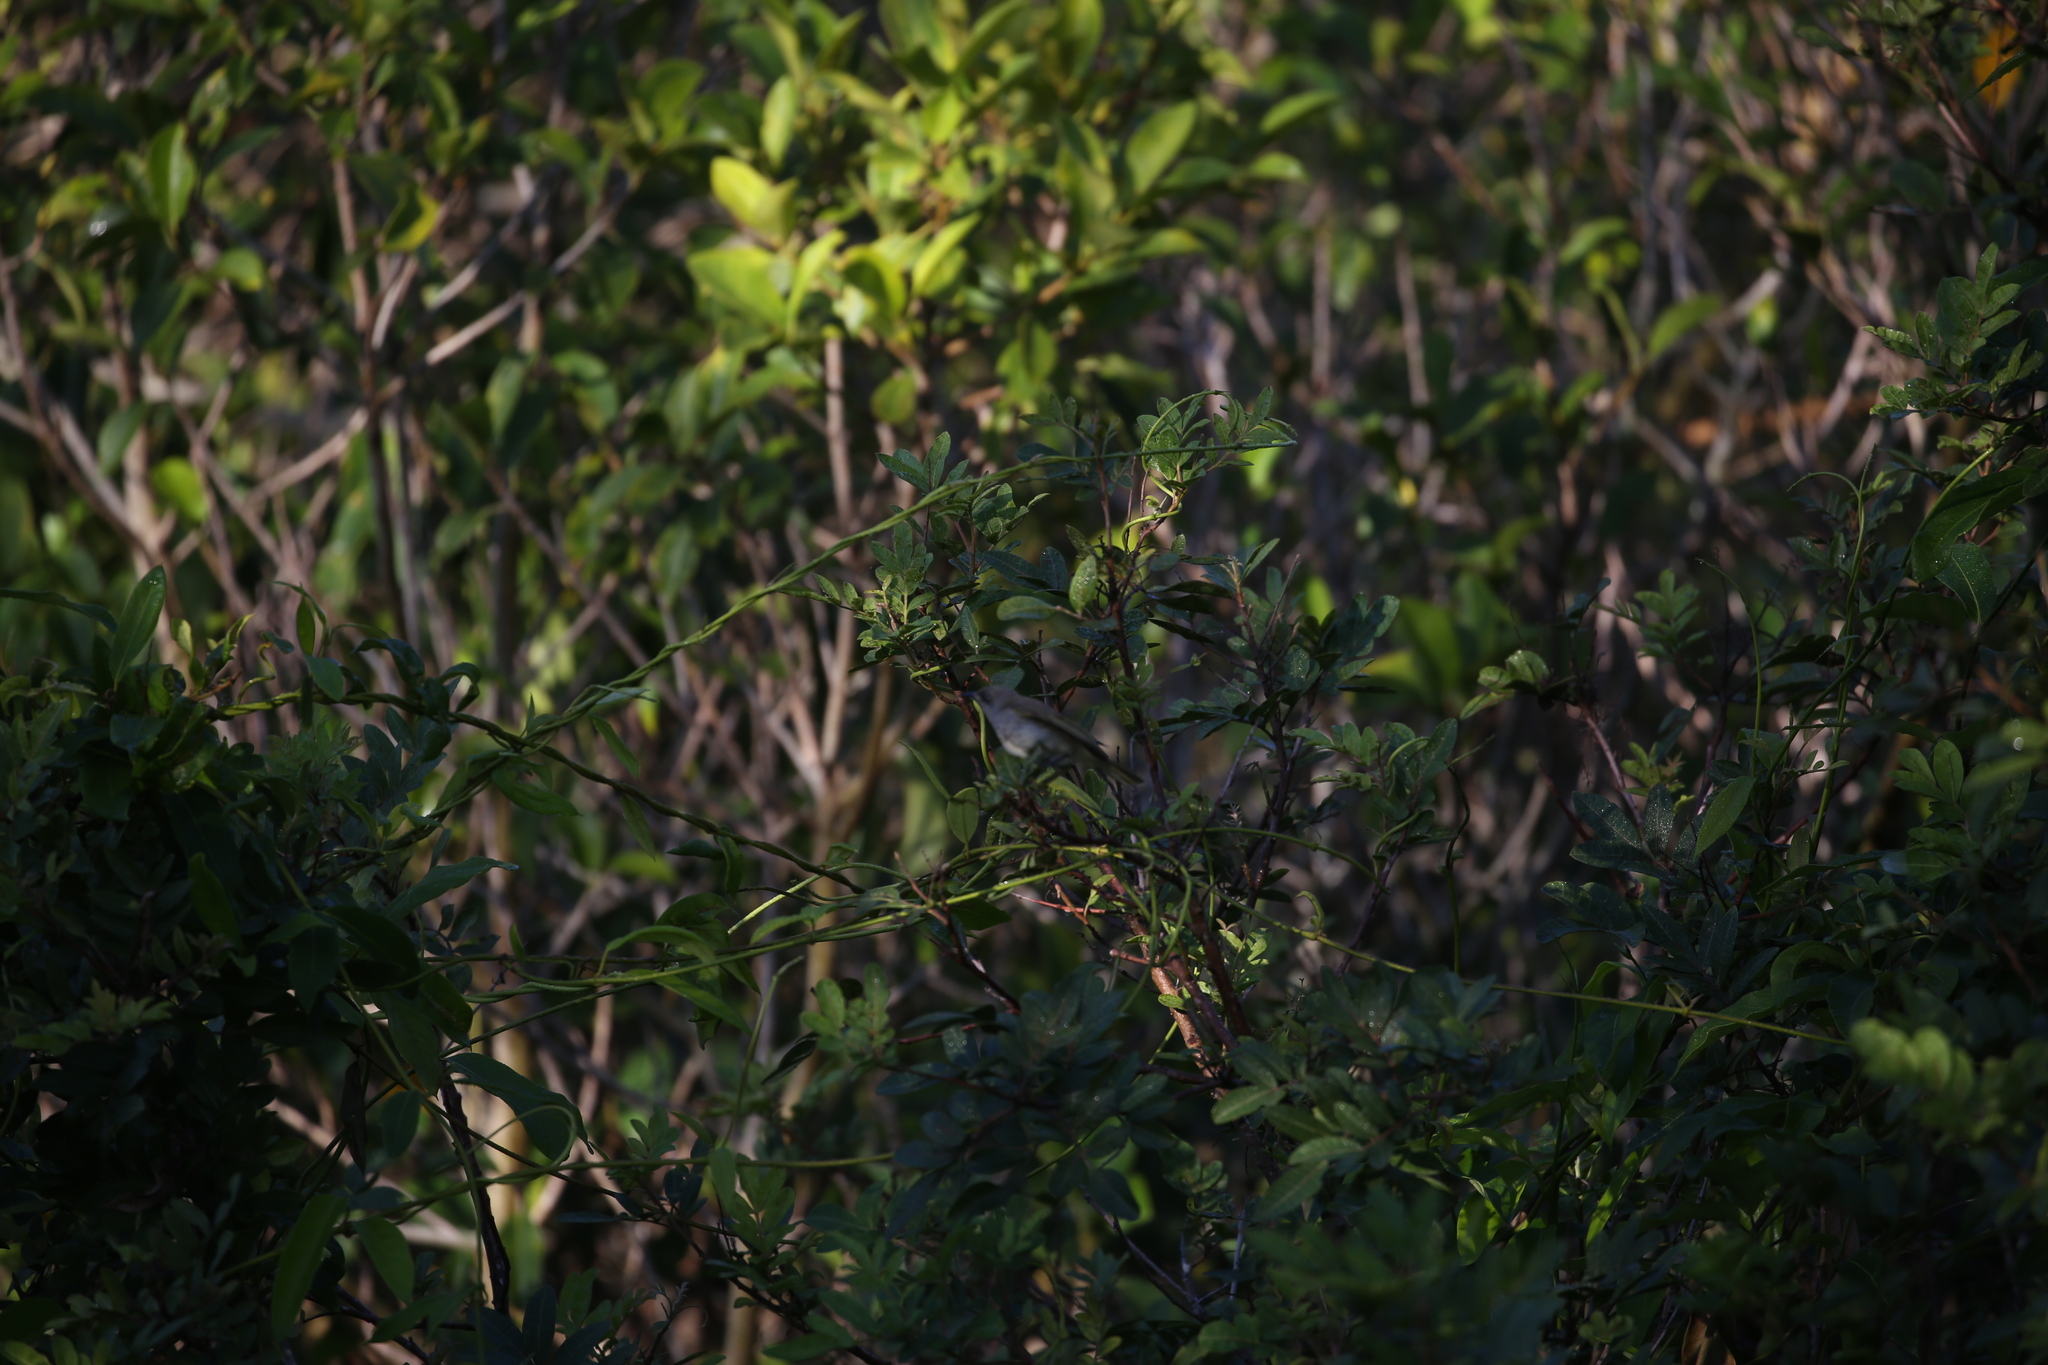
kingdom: Animalia
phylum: Chordata
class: Aves
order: Passeriformes
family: Meliphagidae
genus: Lichmera
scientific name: Lichmera indistincta
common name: Brown honeyeater
